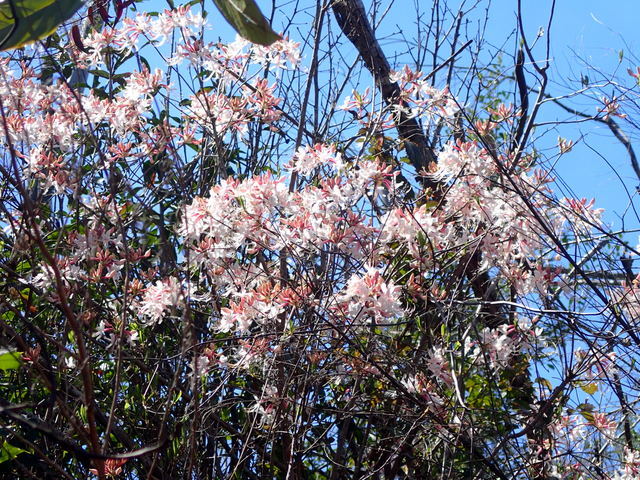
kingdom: Plantae
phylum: Tracheophyta
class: Magnoliopsida
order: Ericales
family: Ericaceae
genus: Rhododendron
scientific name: Rhododendron canescens
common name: Mountain azalea
